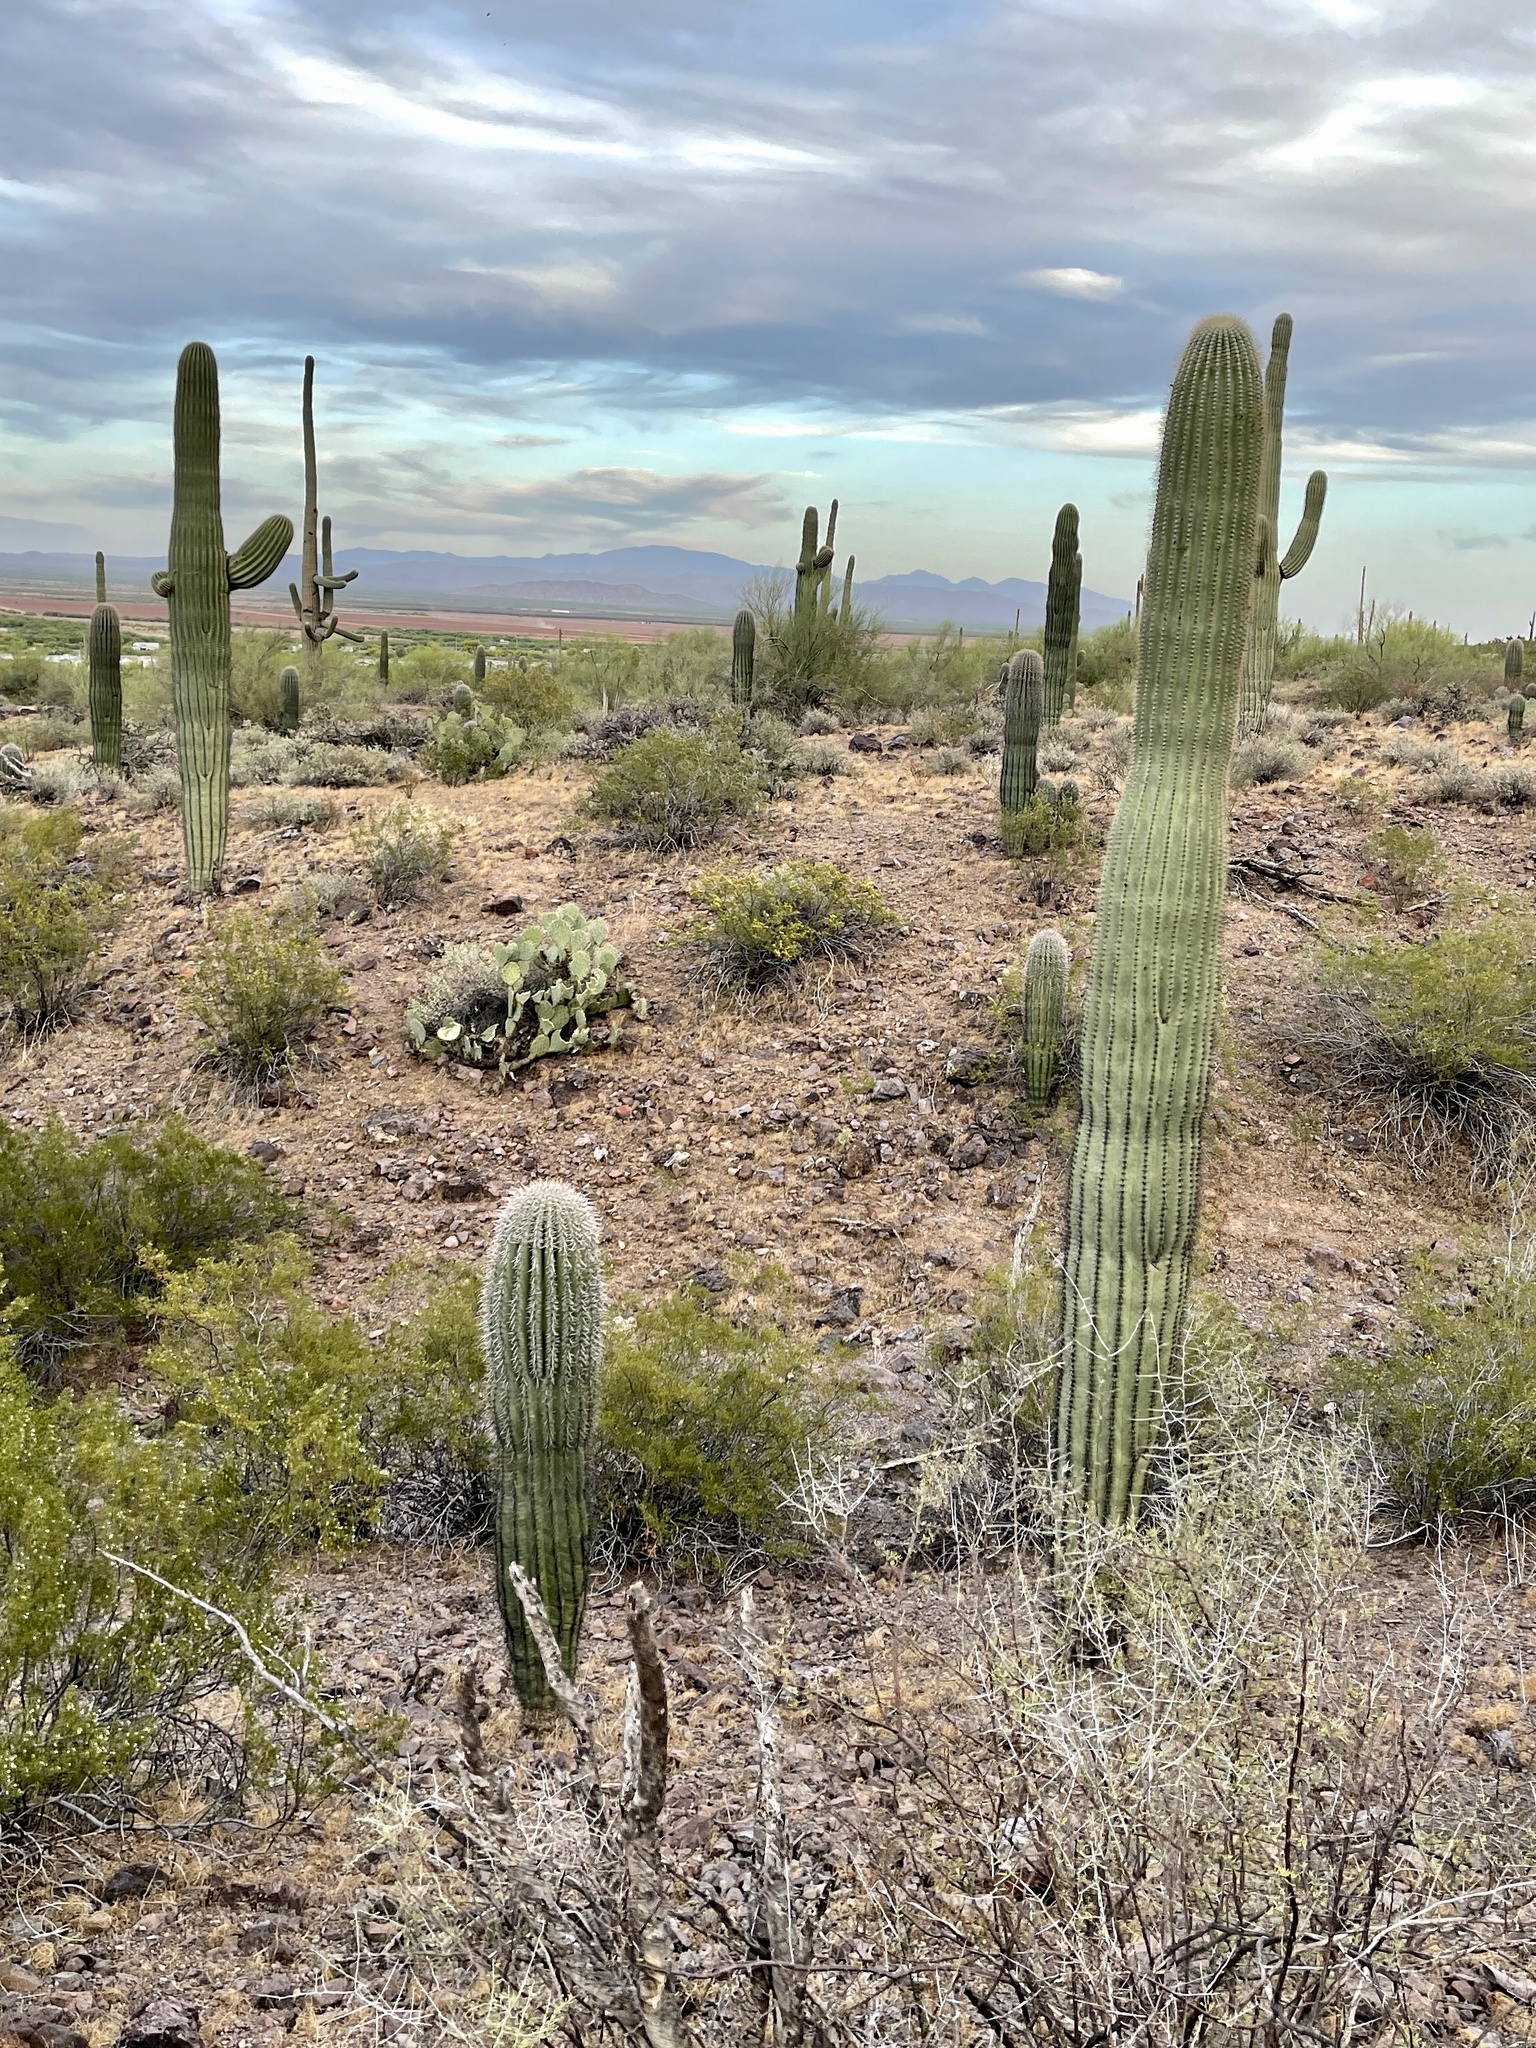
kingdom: Plantae
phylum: Tracheophyta
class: Magnoliopsida
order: Caryophyllales
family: Cactaceae
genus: Carnegiea
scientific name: Carnegiea gigantea
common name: Saguaro
